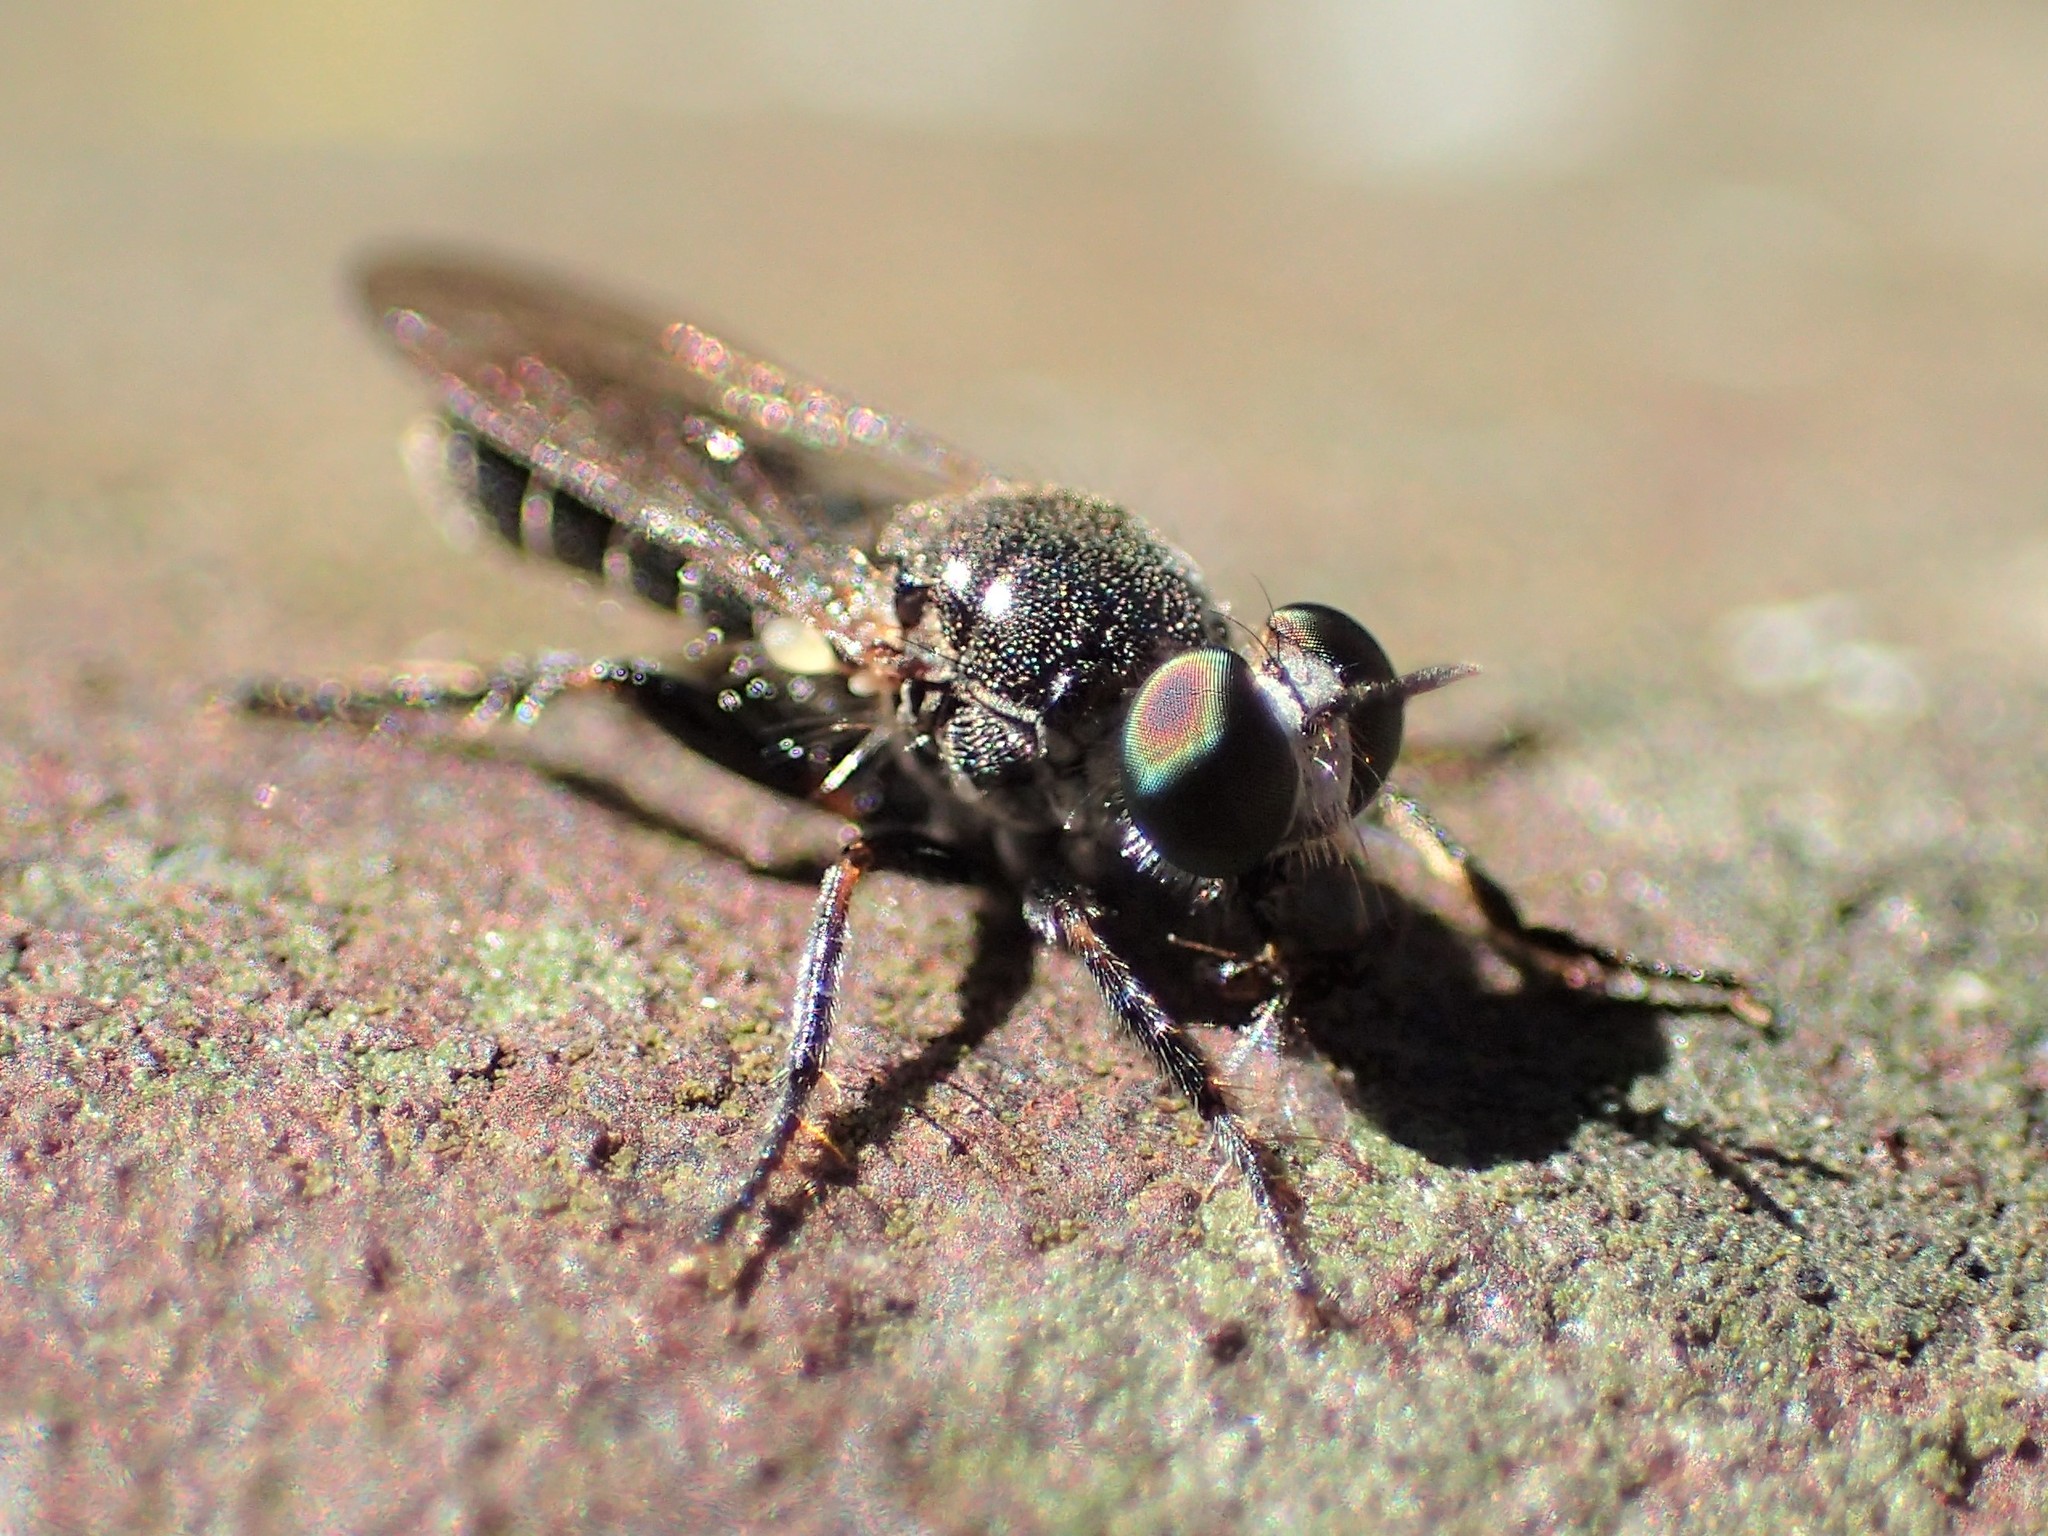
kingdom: Animalia
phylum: Arthropoda
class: Insecta
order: Diptera
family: Asilidae
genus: Atomosia
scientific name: Atomosia puella
